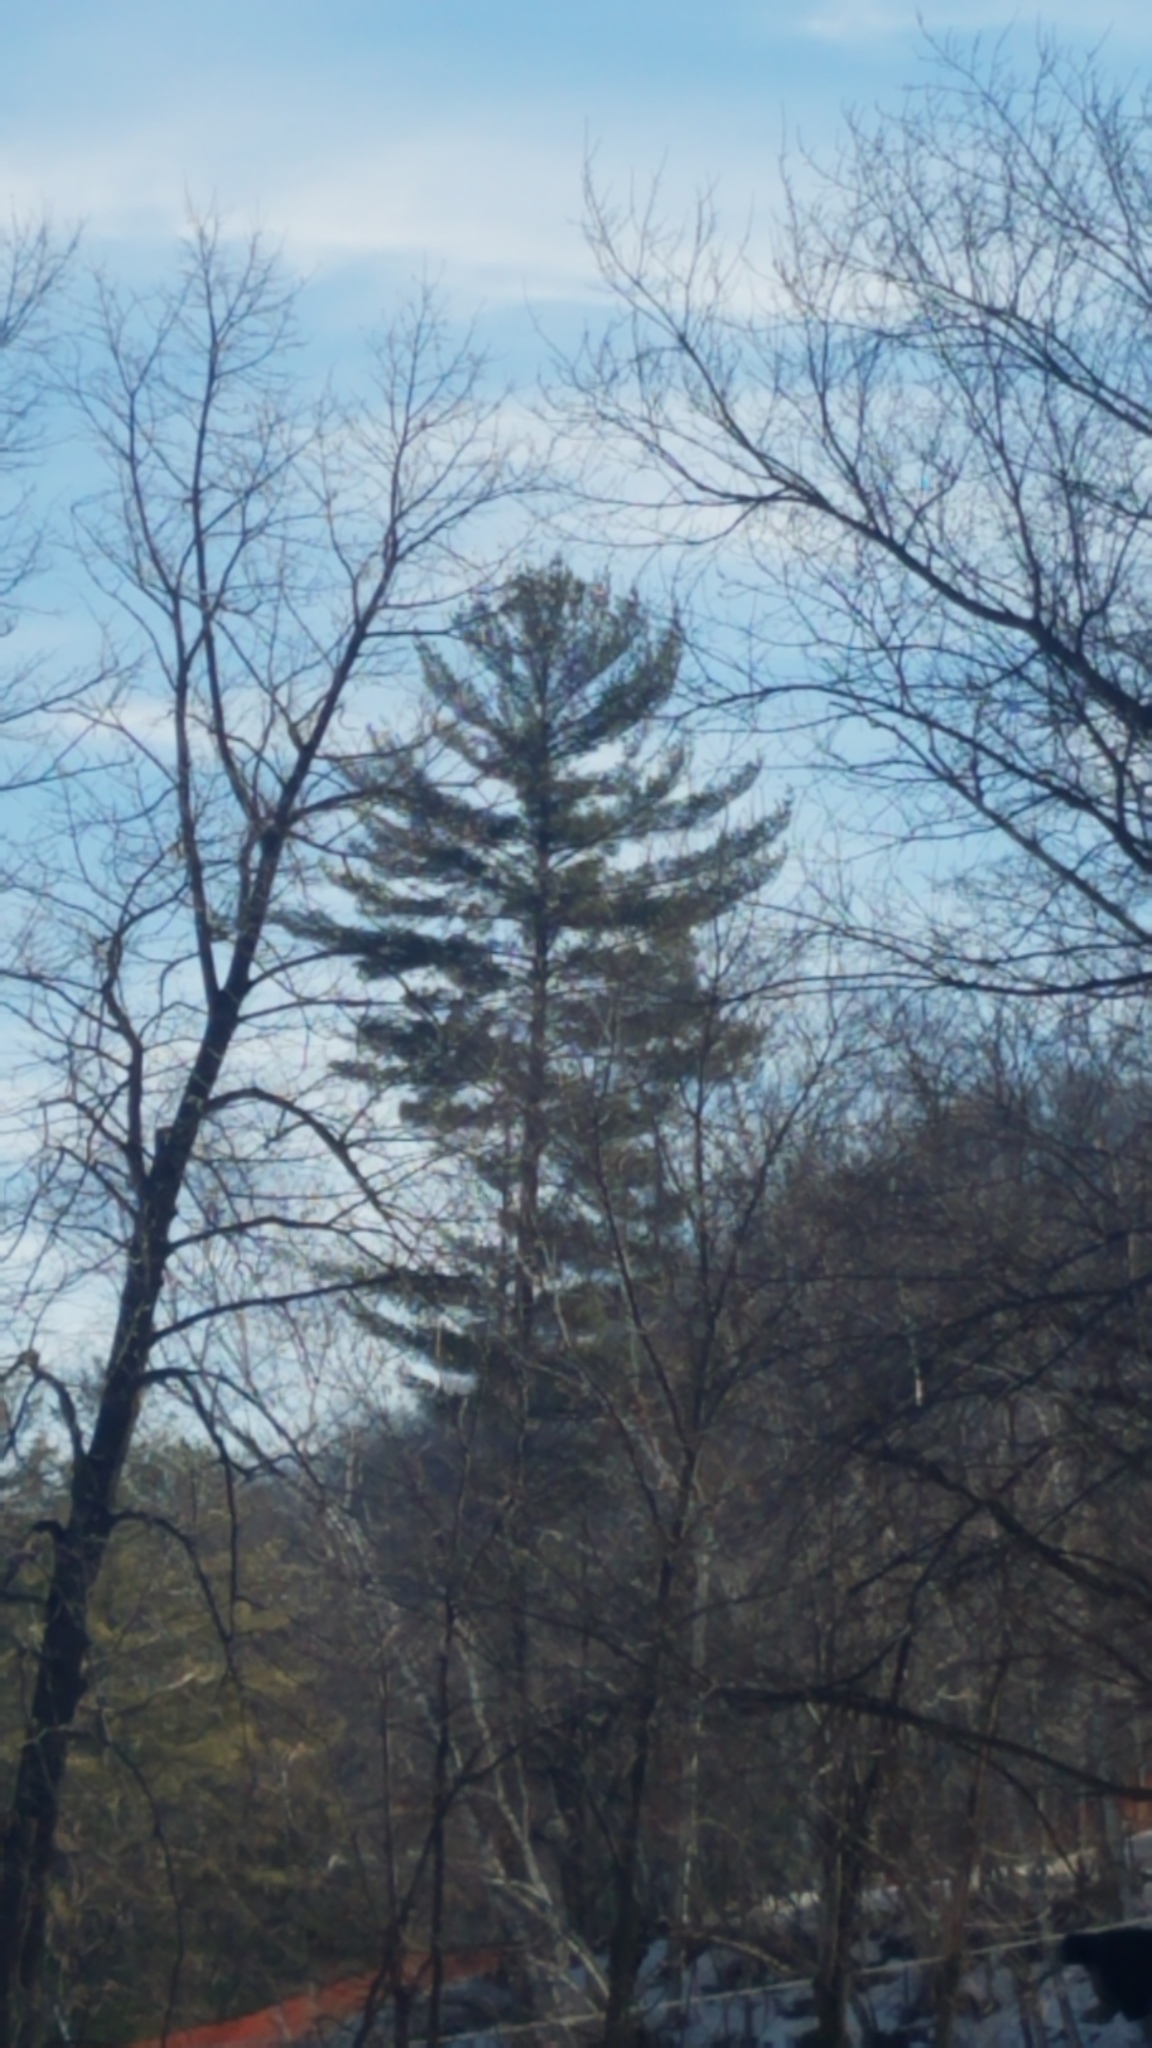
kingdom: Plantae
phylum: Tracheophyta
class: Pinopsida
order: Pinales
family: Pinaceae
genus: Pinus
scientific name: Pinus strobus
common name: Weymouth pine
